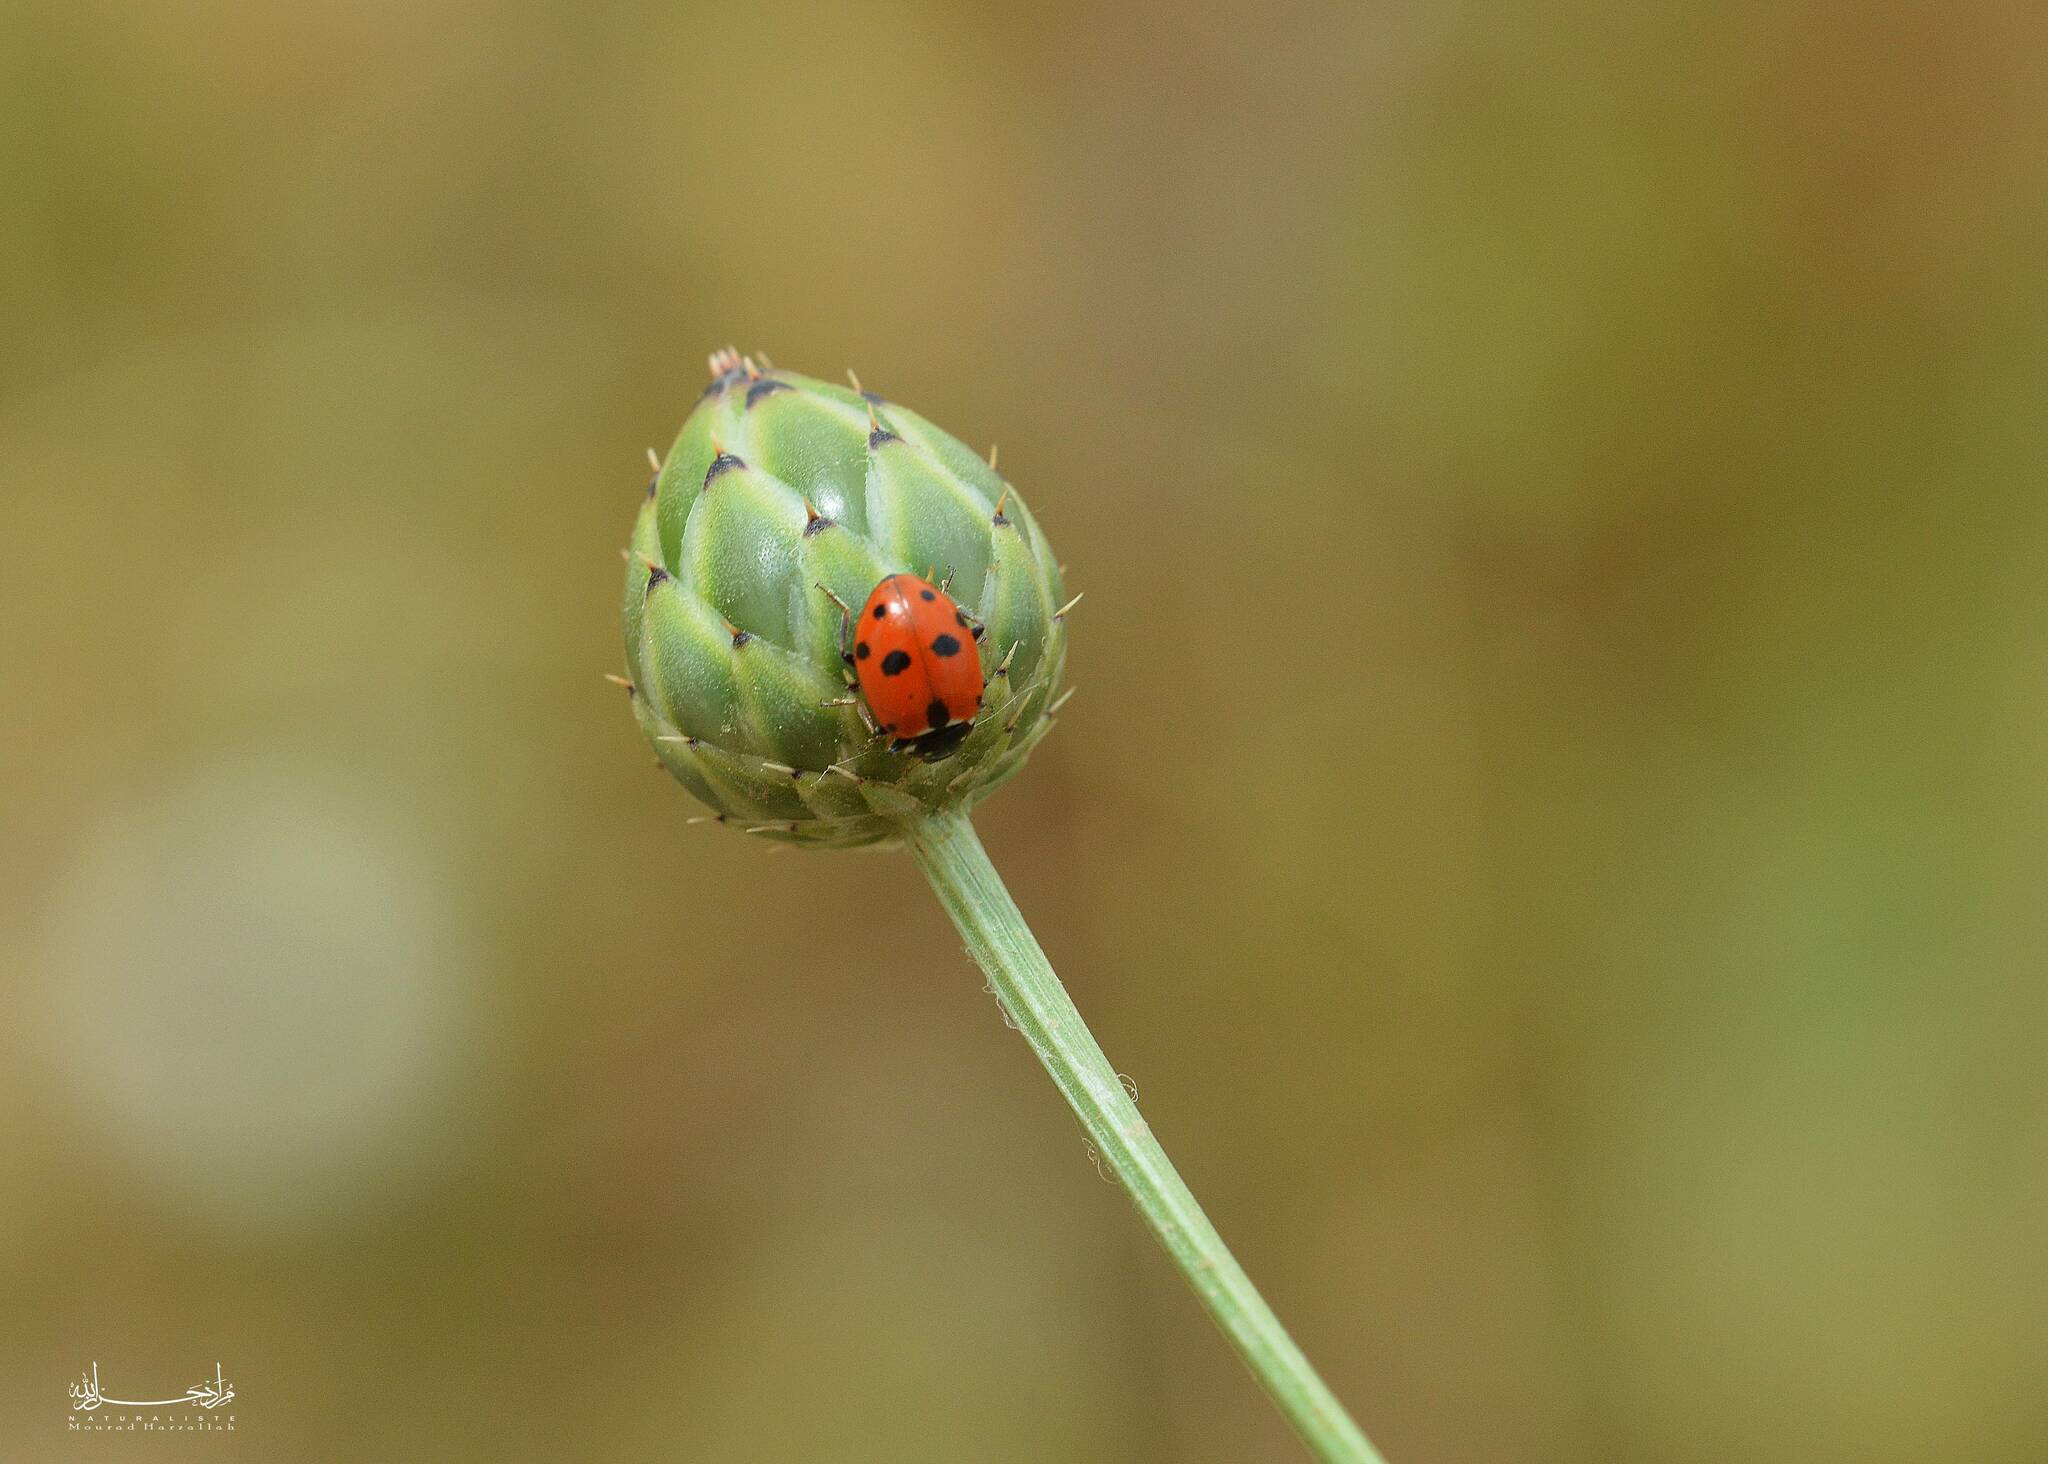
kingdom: Animalia
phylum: Arthropoda
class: Insecta
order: Coleoptera
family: Coccinellidae
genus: Hippodamia
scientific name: Hippodamia variegata
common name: Ladybird beetle
